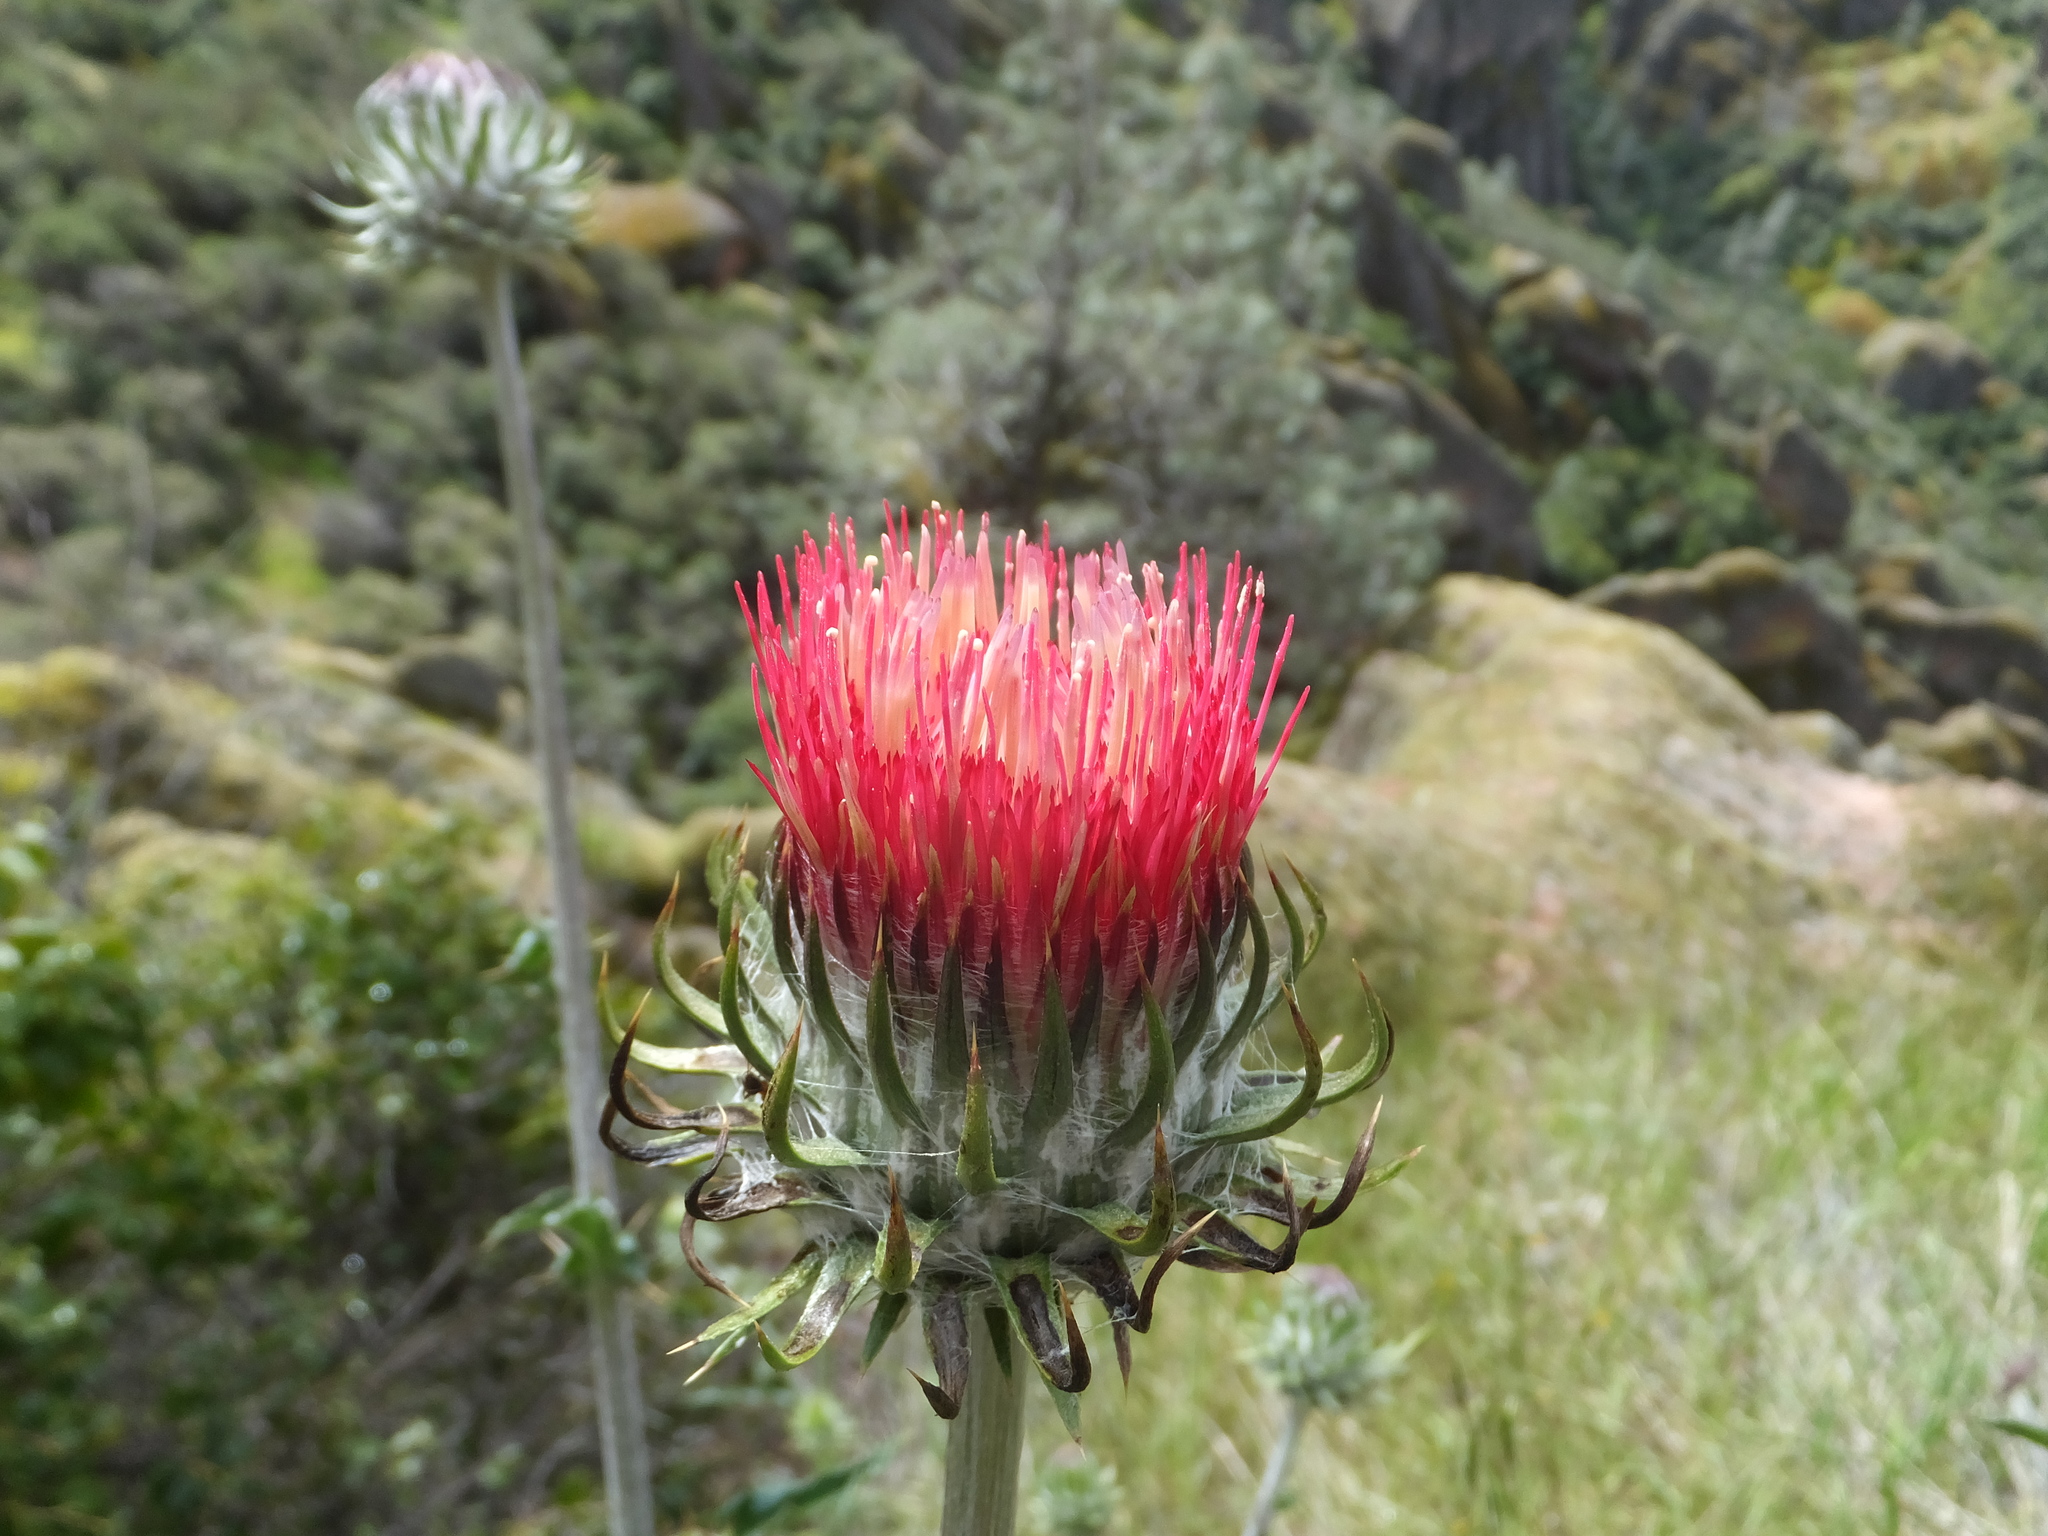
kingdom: Plantae
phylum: Tracheophyta
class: Magnoliopsida
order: Asterales
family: Asteraceae
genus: Cirsium
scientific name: Cirsium occidentale
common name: Western thistle
